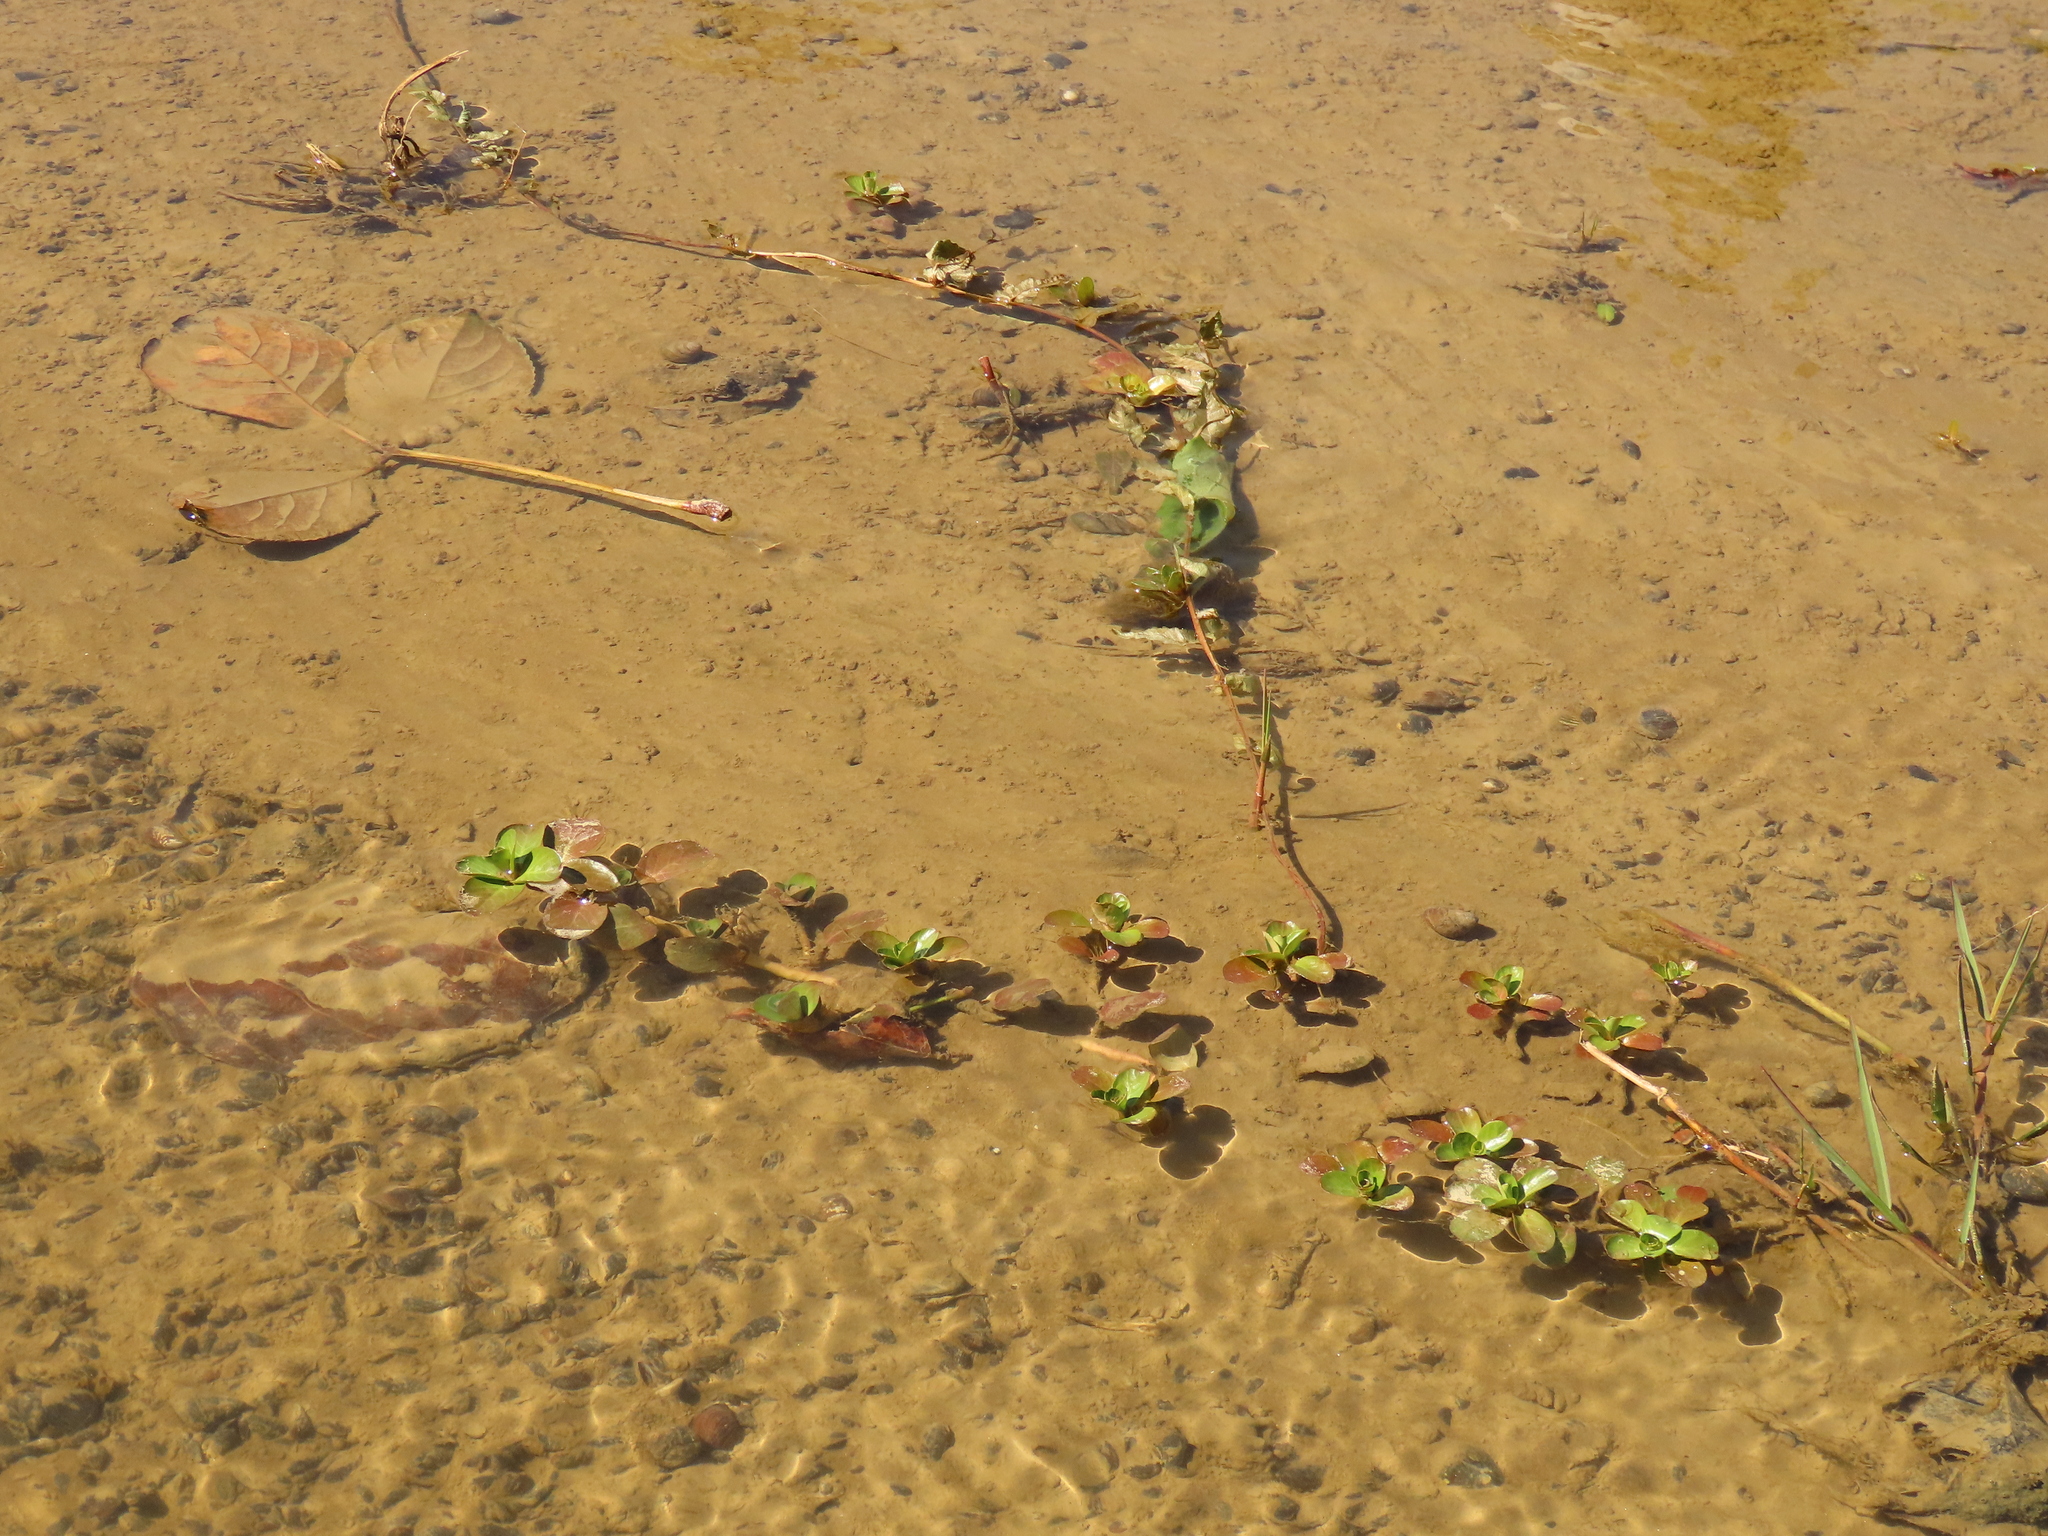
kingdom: Plantae
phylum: Tracheophyta
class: Magnoliopsida
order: Myrtales
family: Onagraceae
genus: Ludwigia
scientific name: Ludwigia taiwanensis
